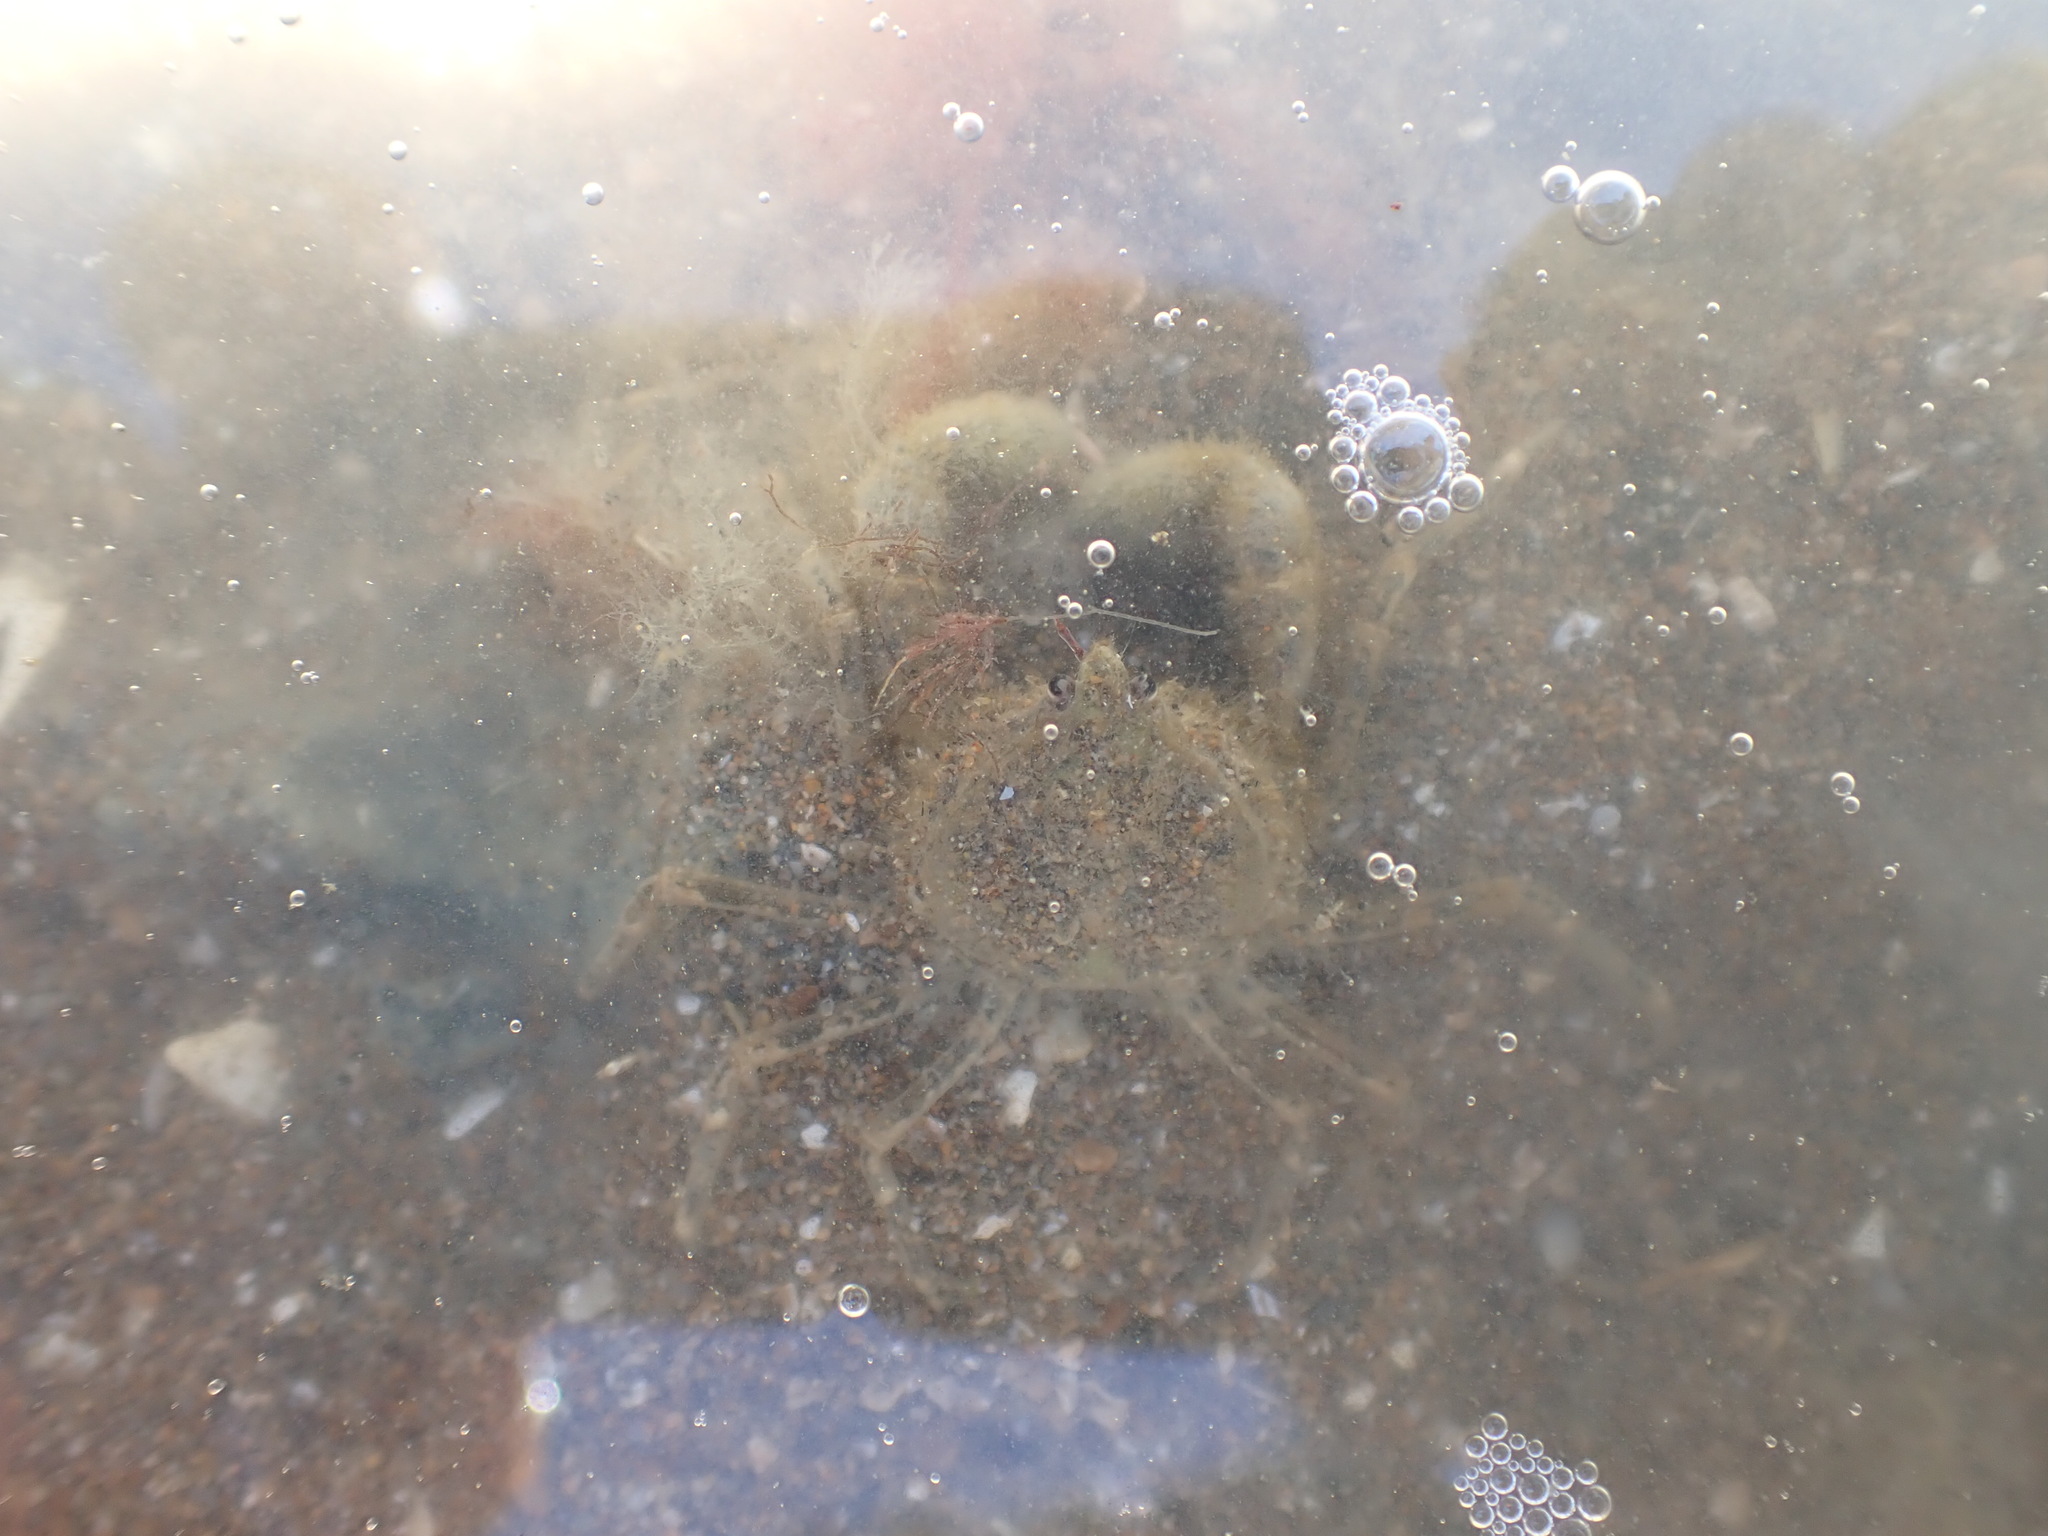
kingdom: Animalia
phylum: Arthropoda
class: Malacostraca
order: Decapoda
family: Hymenosomatidae
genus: Halicarcinus
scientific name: Halicarcinus whitei
